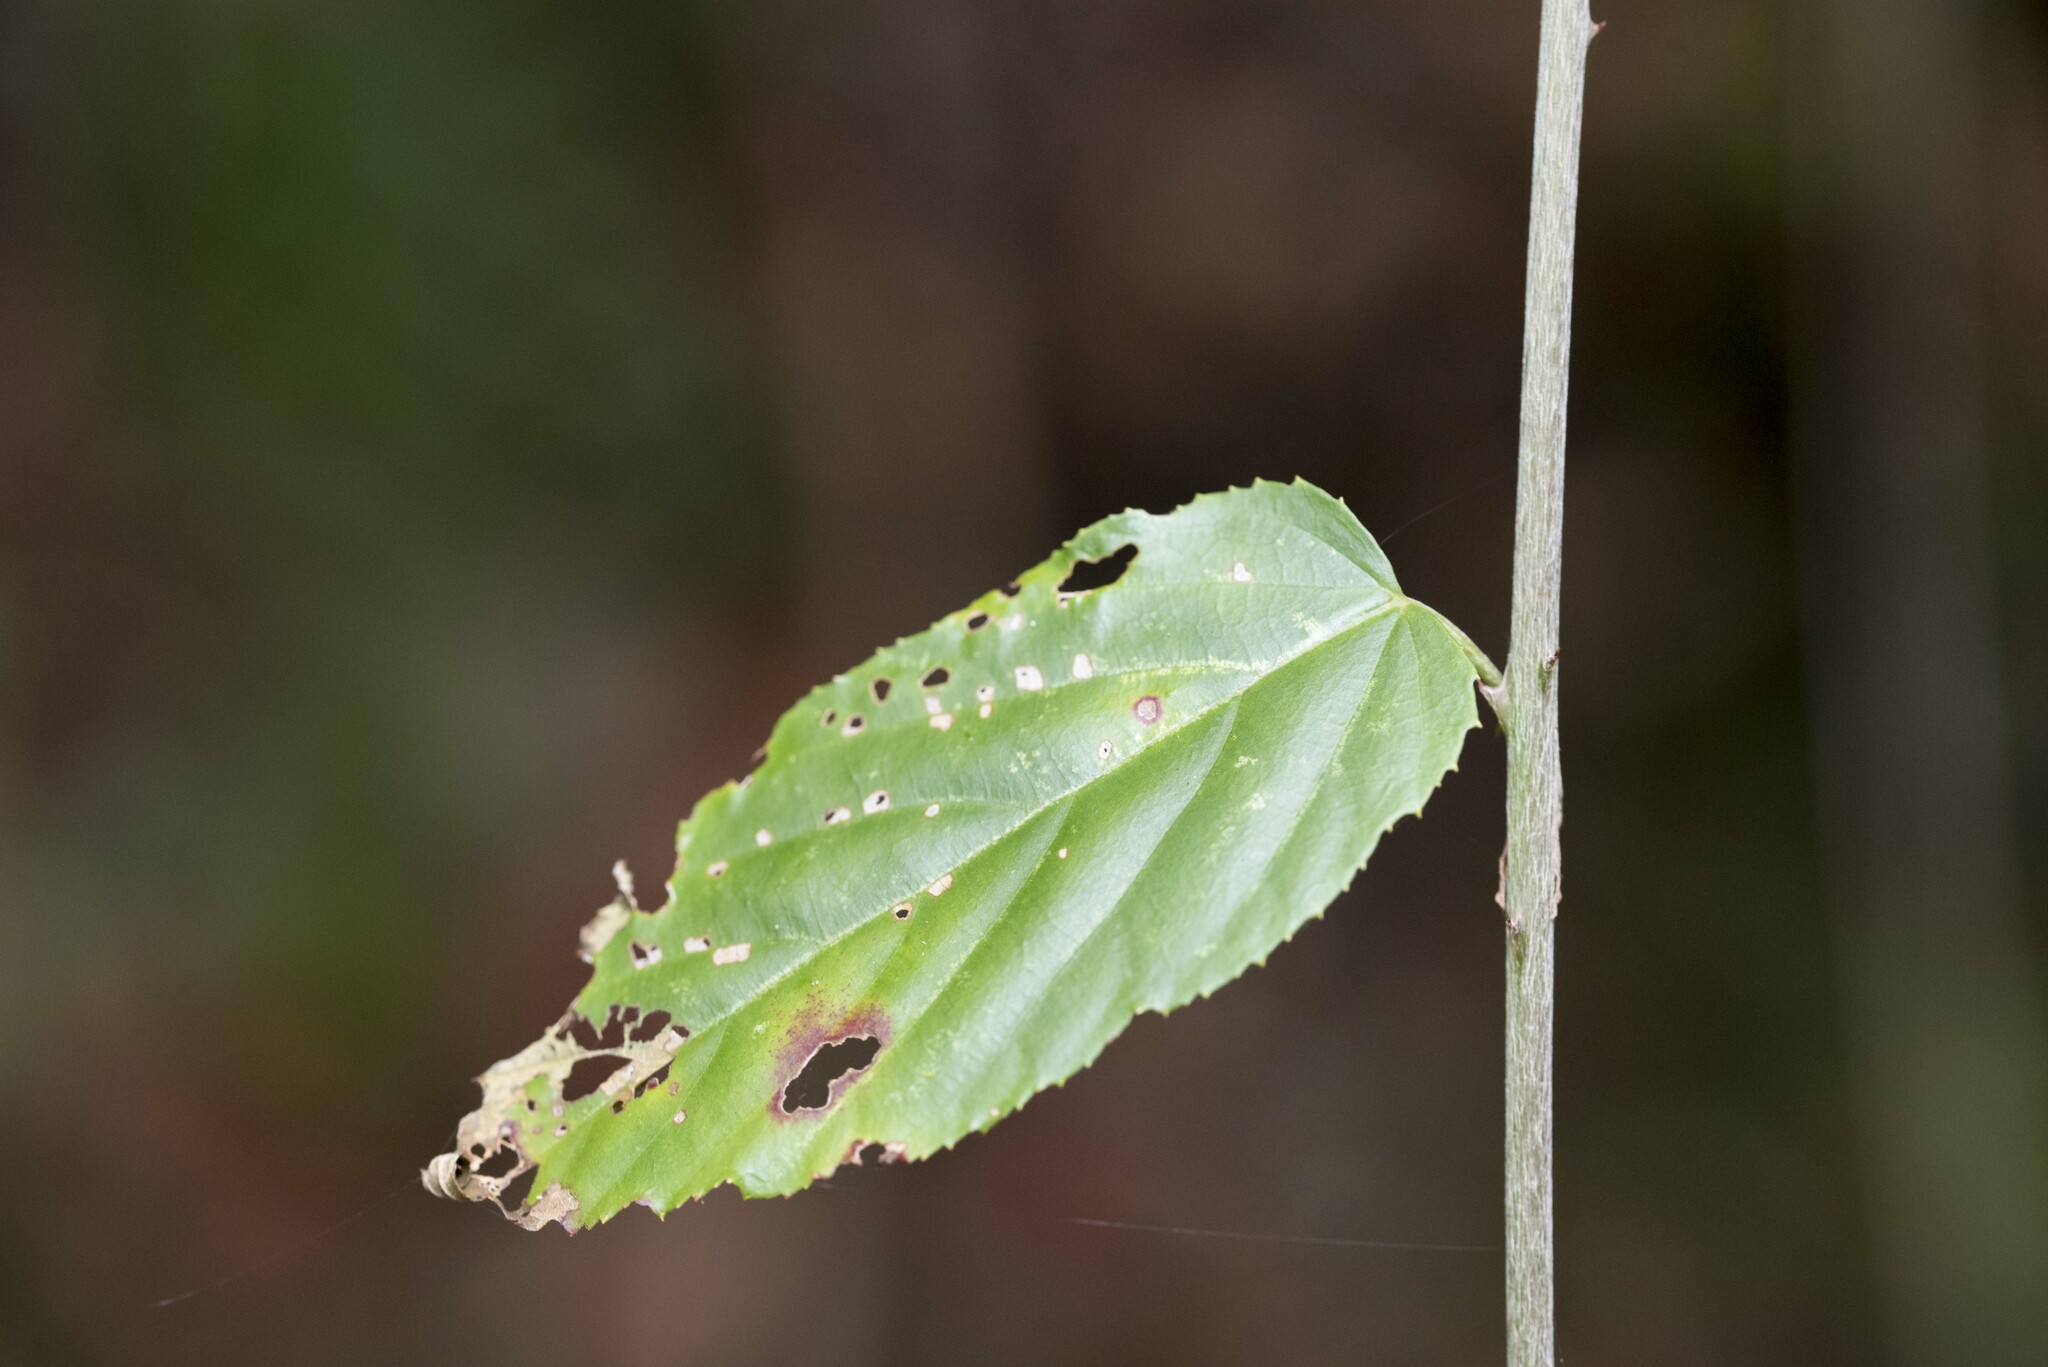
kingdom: Plantae
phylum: Tracheophyta
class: Magnoliopsida
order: Rosales
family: Rosaceae
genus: Rubus
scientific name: Rubus kawakamii
